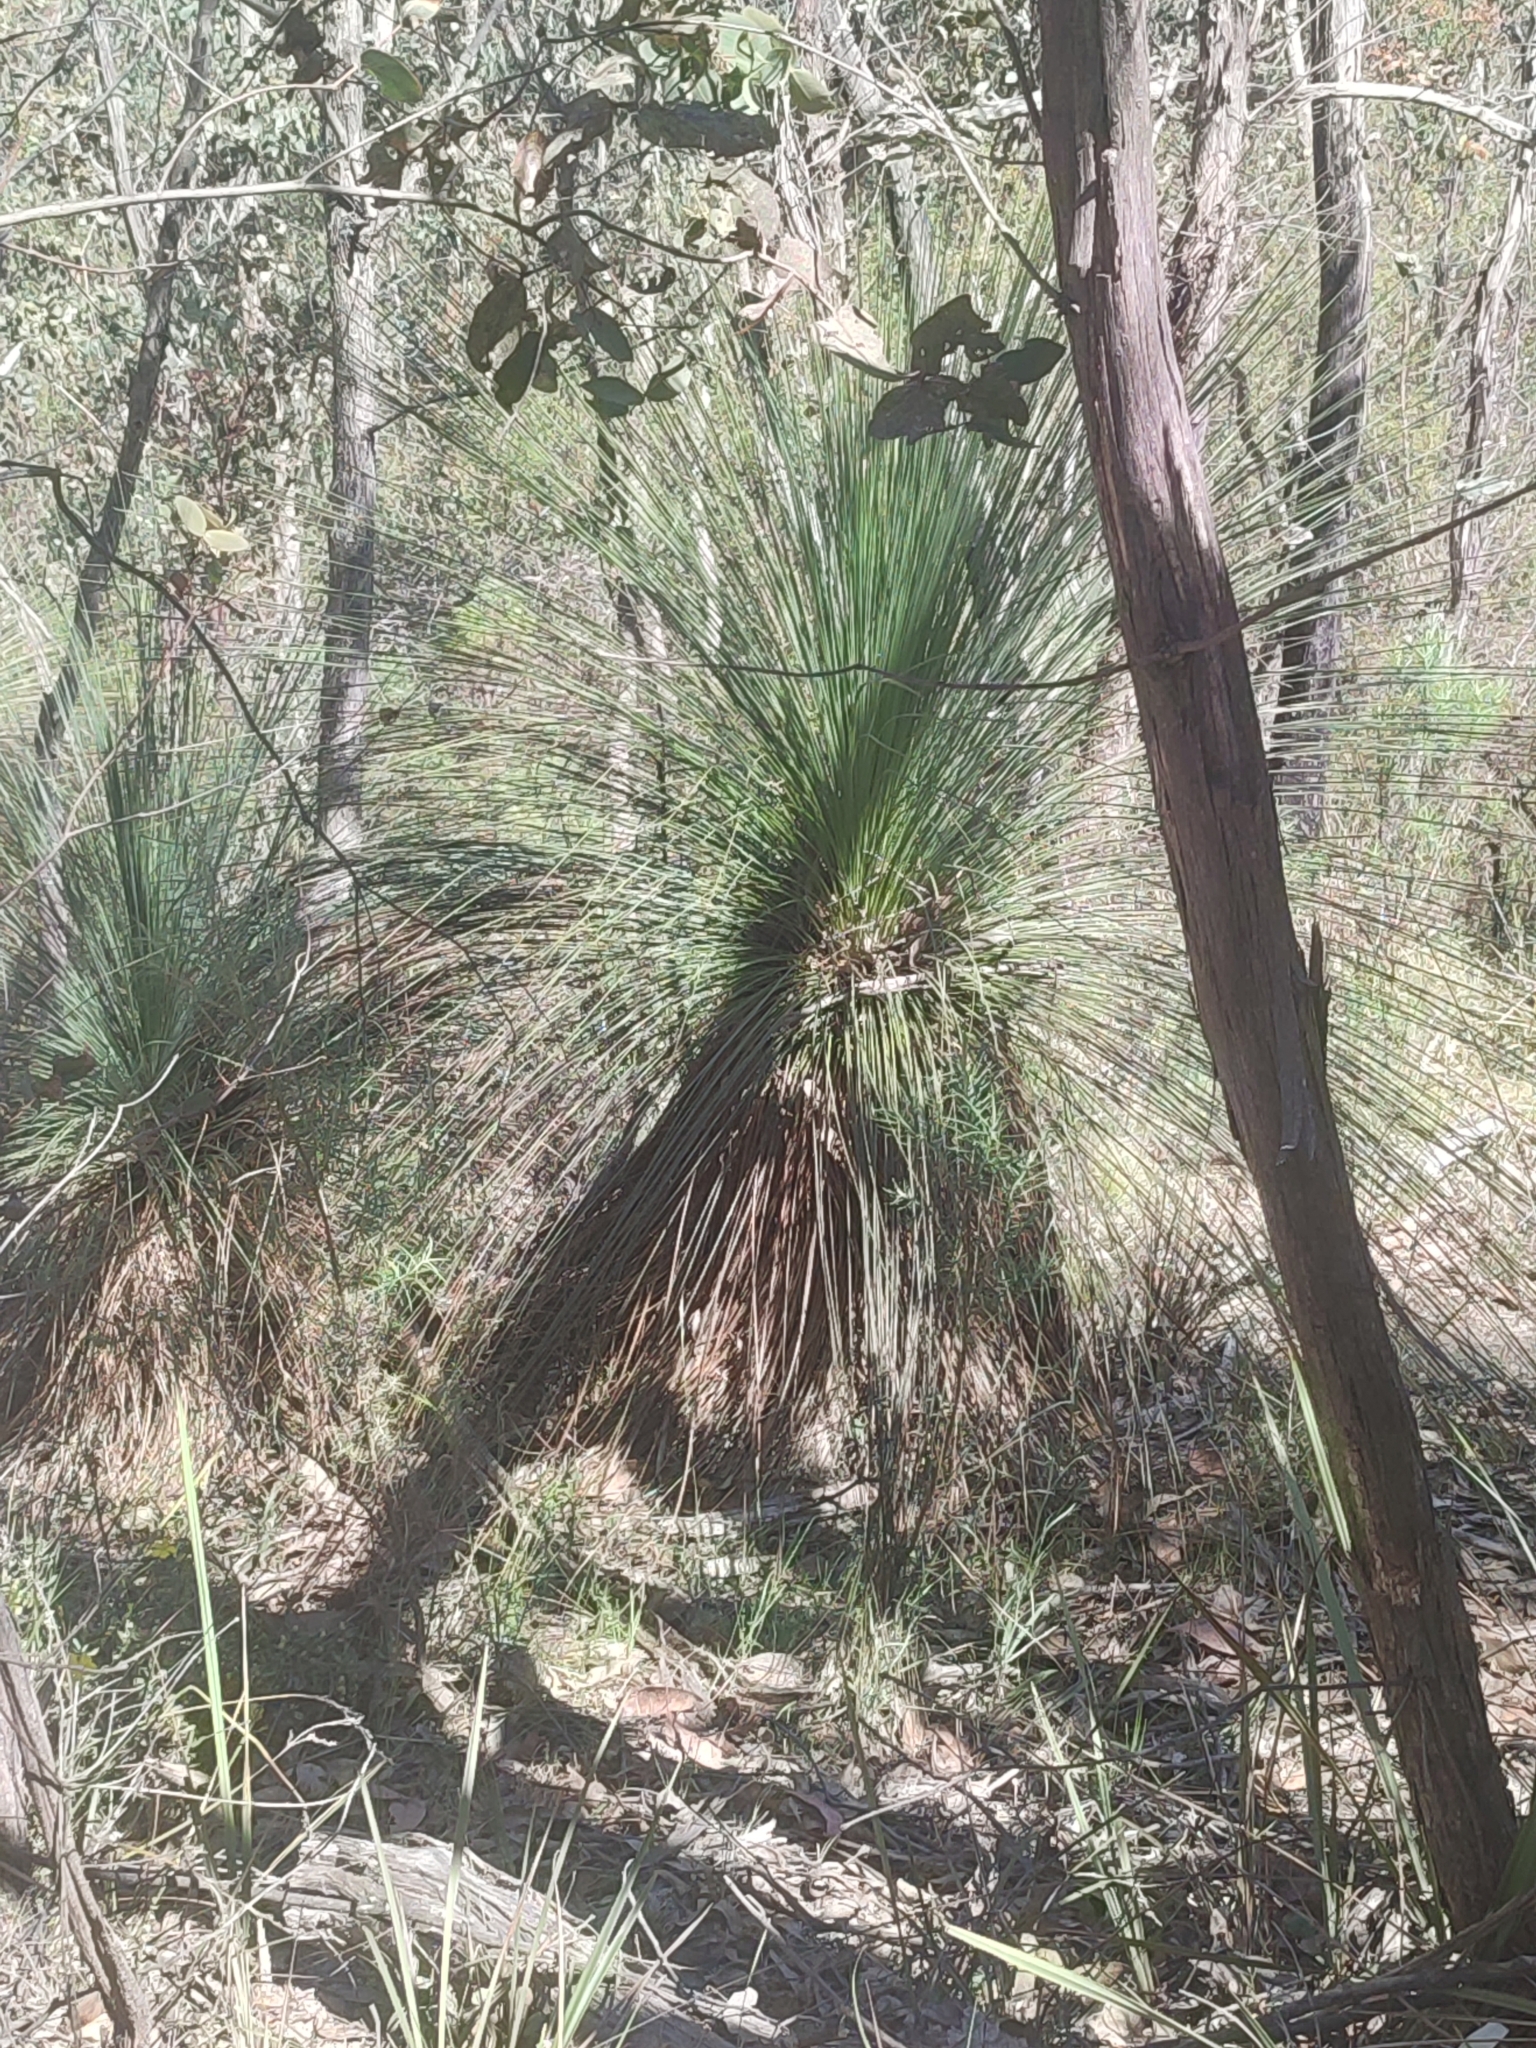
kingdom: Plantae
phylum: Tracheophyta
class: Liliopsida
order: Asparagales
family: Asphodelaceae
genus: Xanthorrhoea
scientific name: Xanthorrhoea glauca
